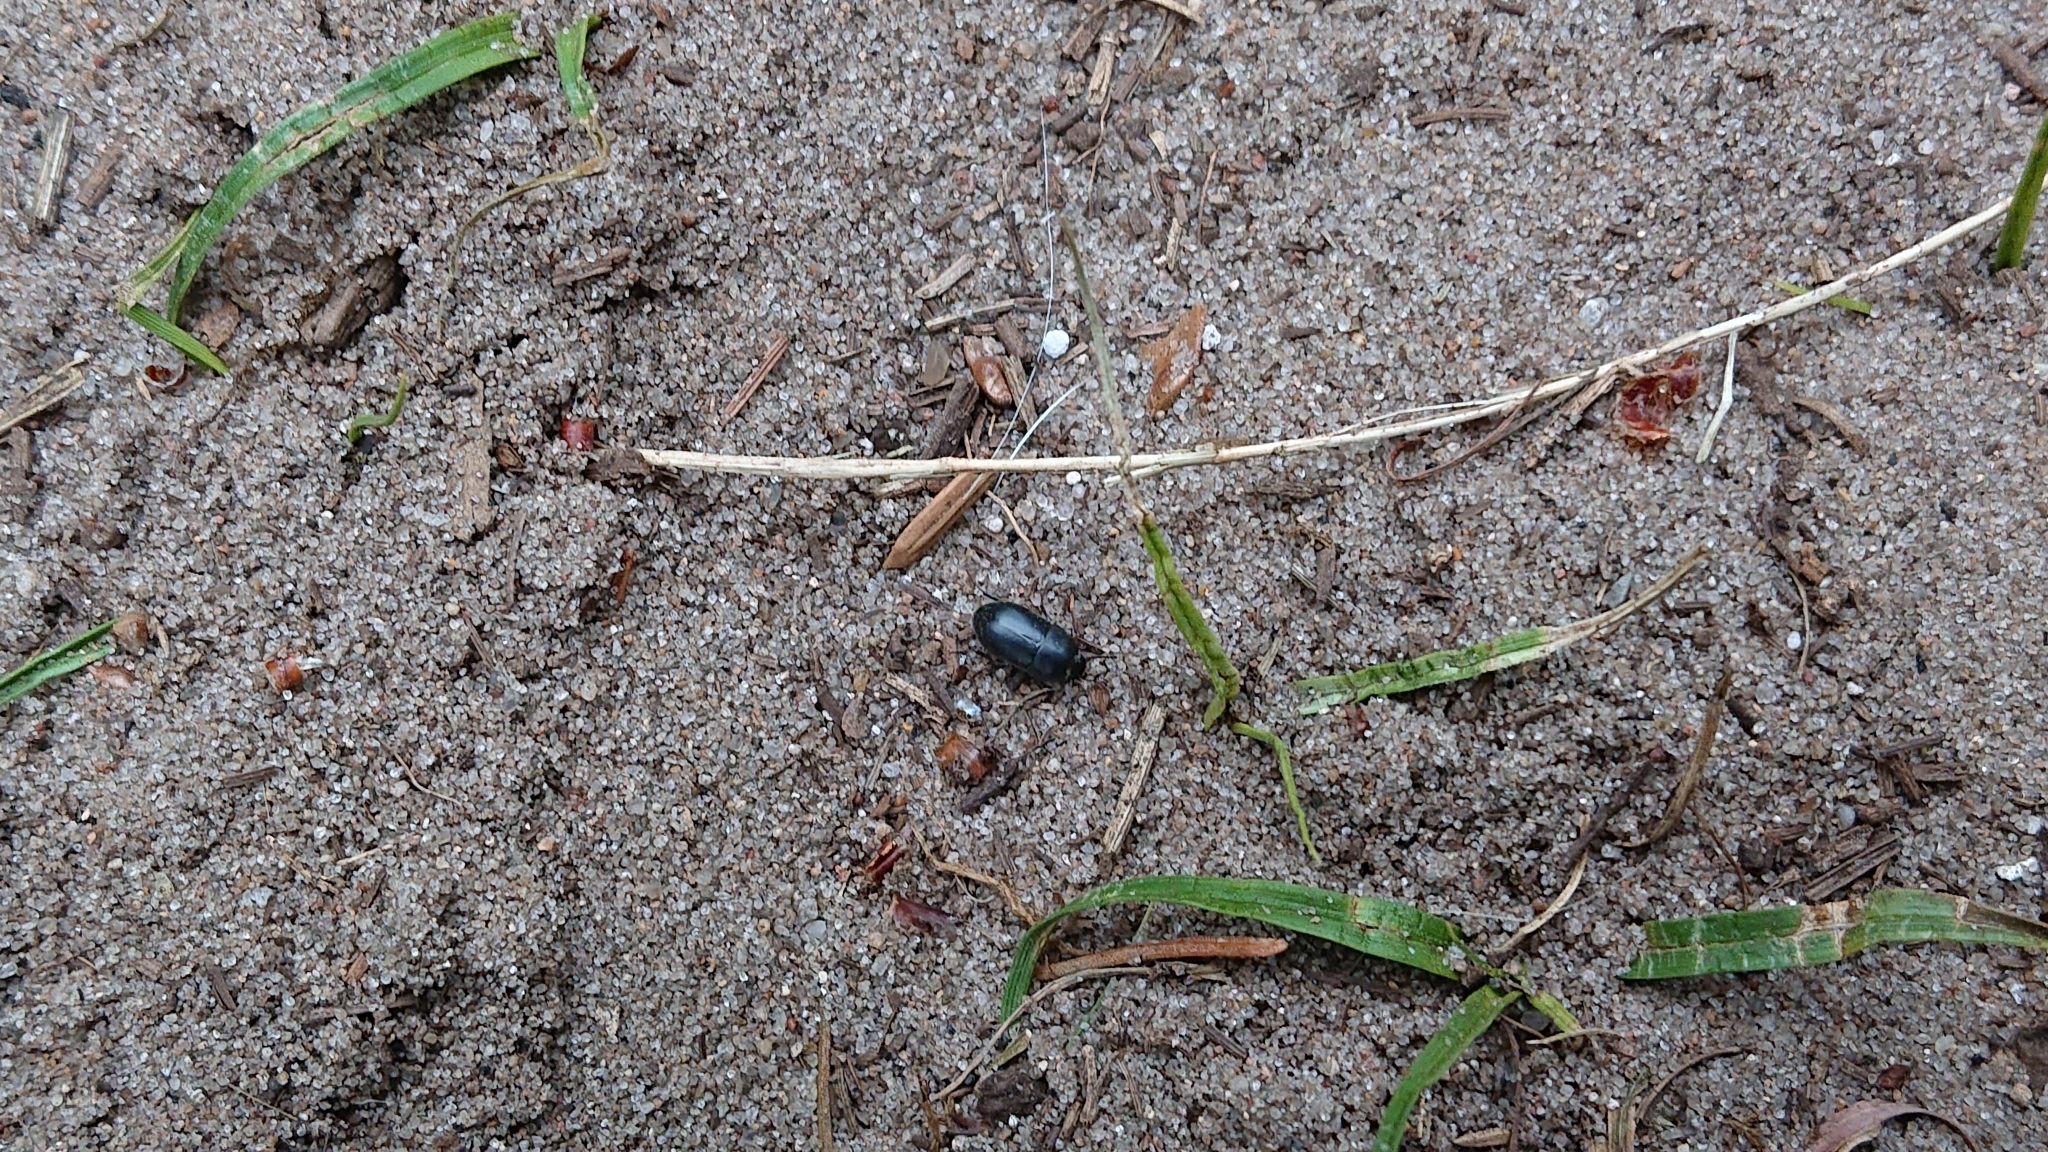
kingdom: Animalia
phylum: Arthropoda
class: Insecta
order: Coleoptera
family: Tenebrionidae
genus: Crypticus
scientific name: Crypticus quisquilius
